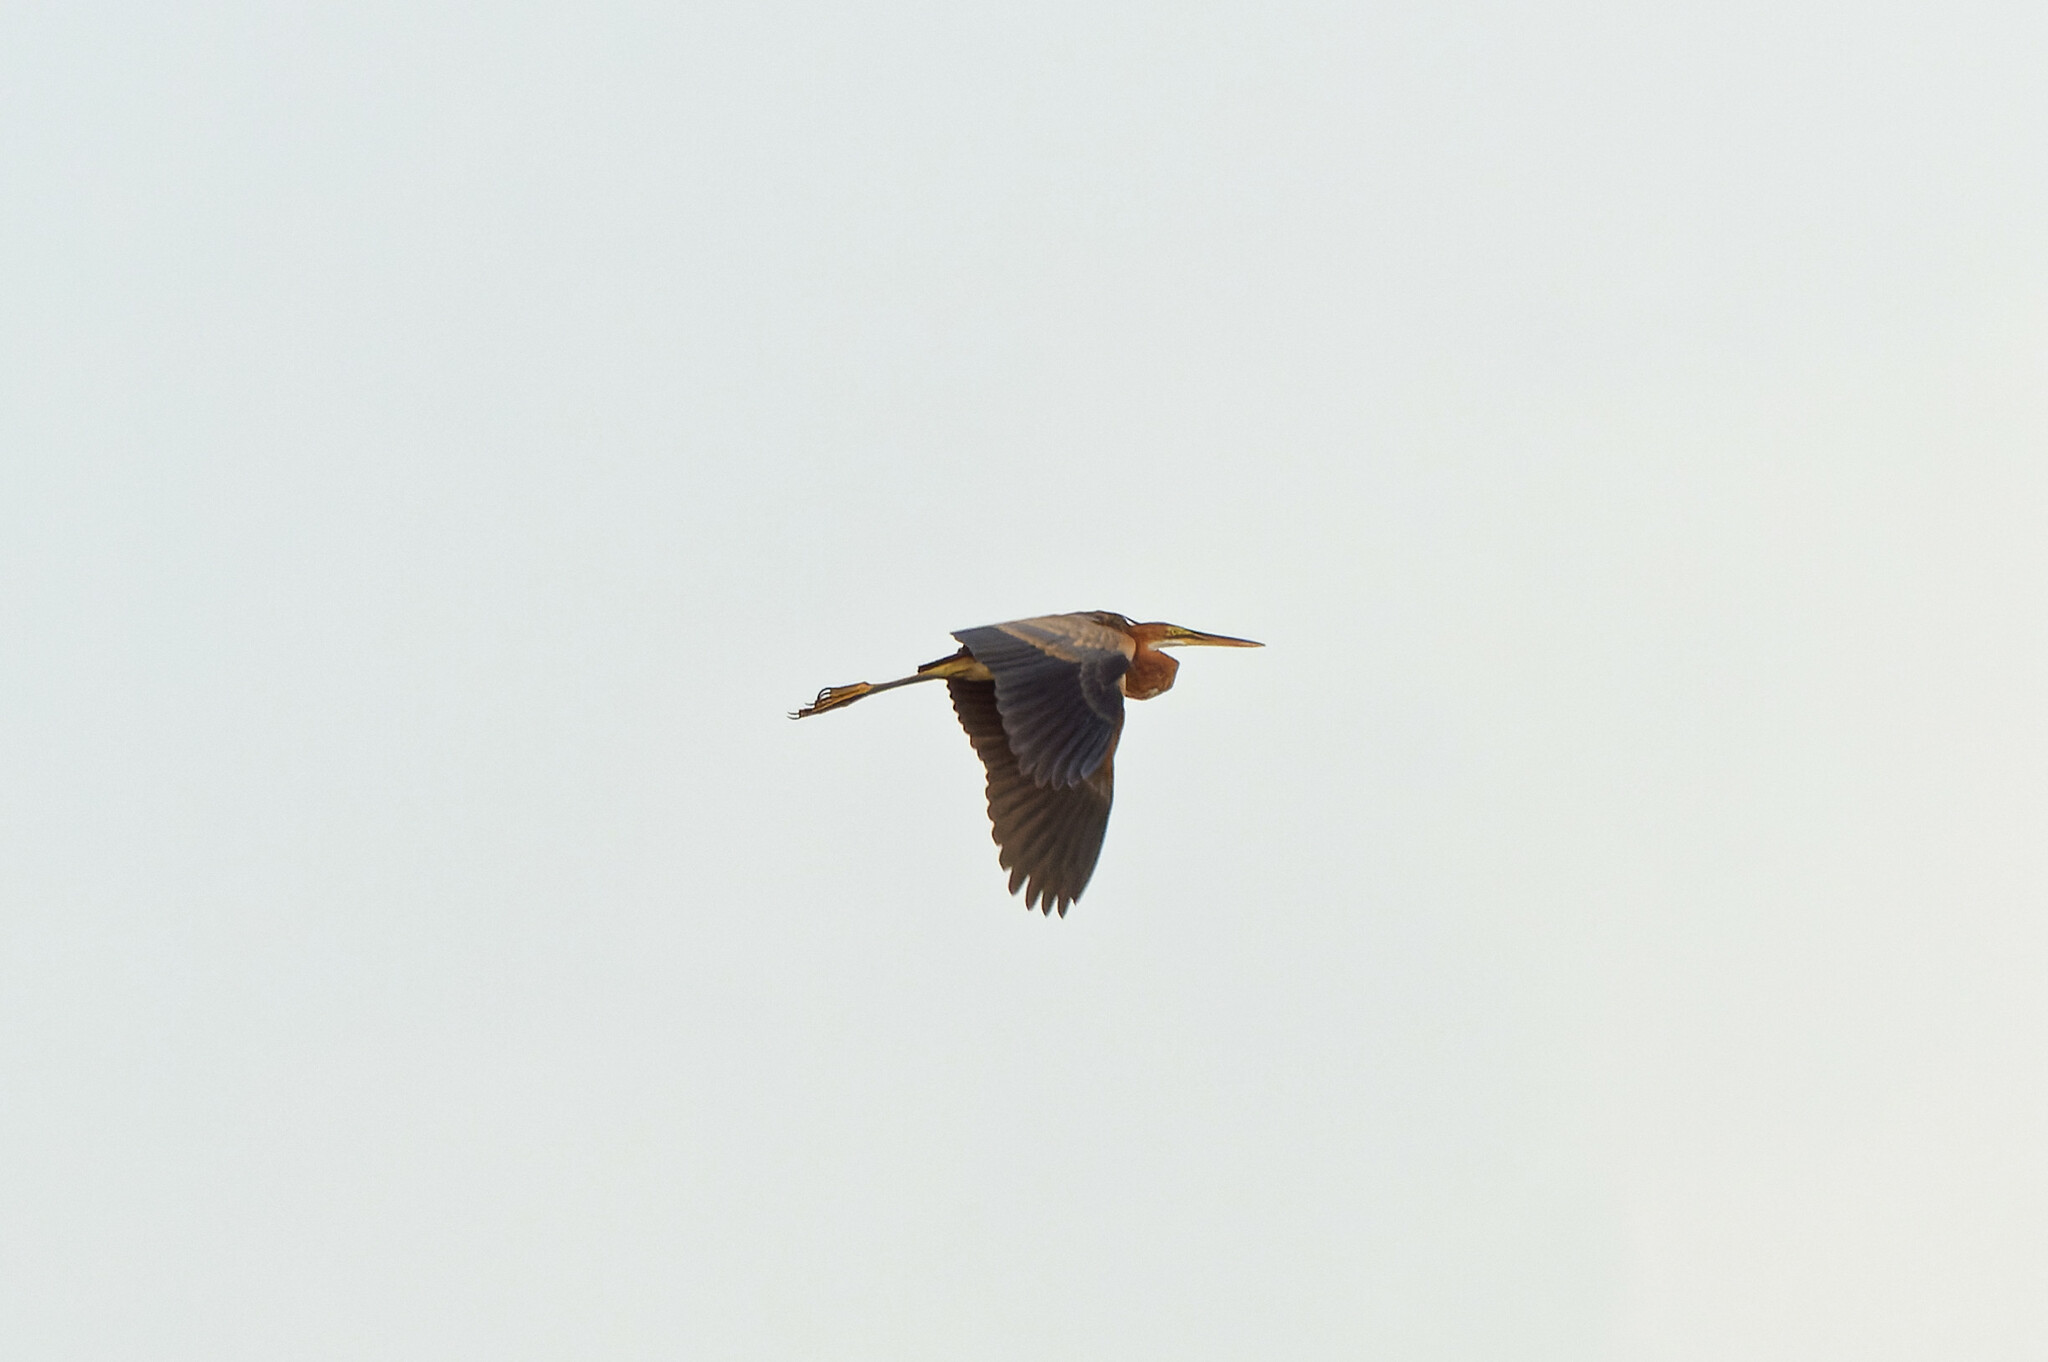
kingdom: Animalia
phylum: Chordata
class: Aves
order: Pelecaniformes
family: Ardeidae
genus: Ardea
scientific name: Ardea purpurea
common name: Purple heron
